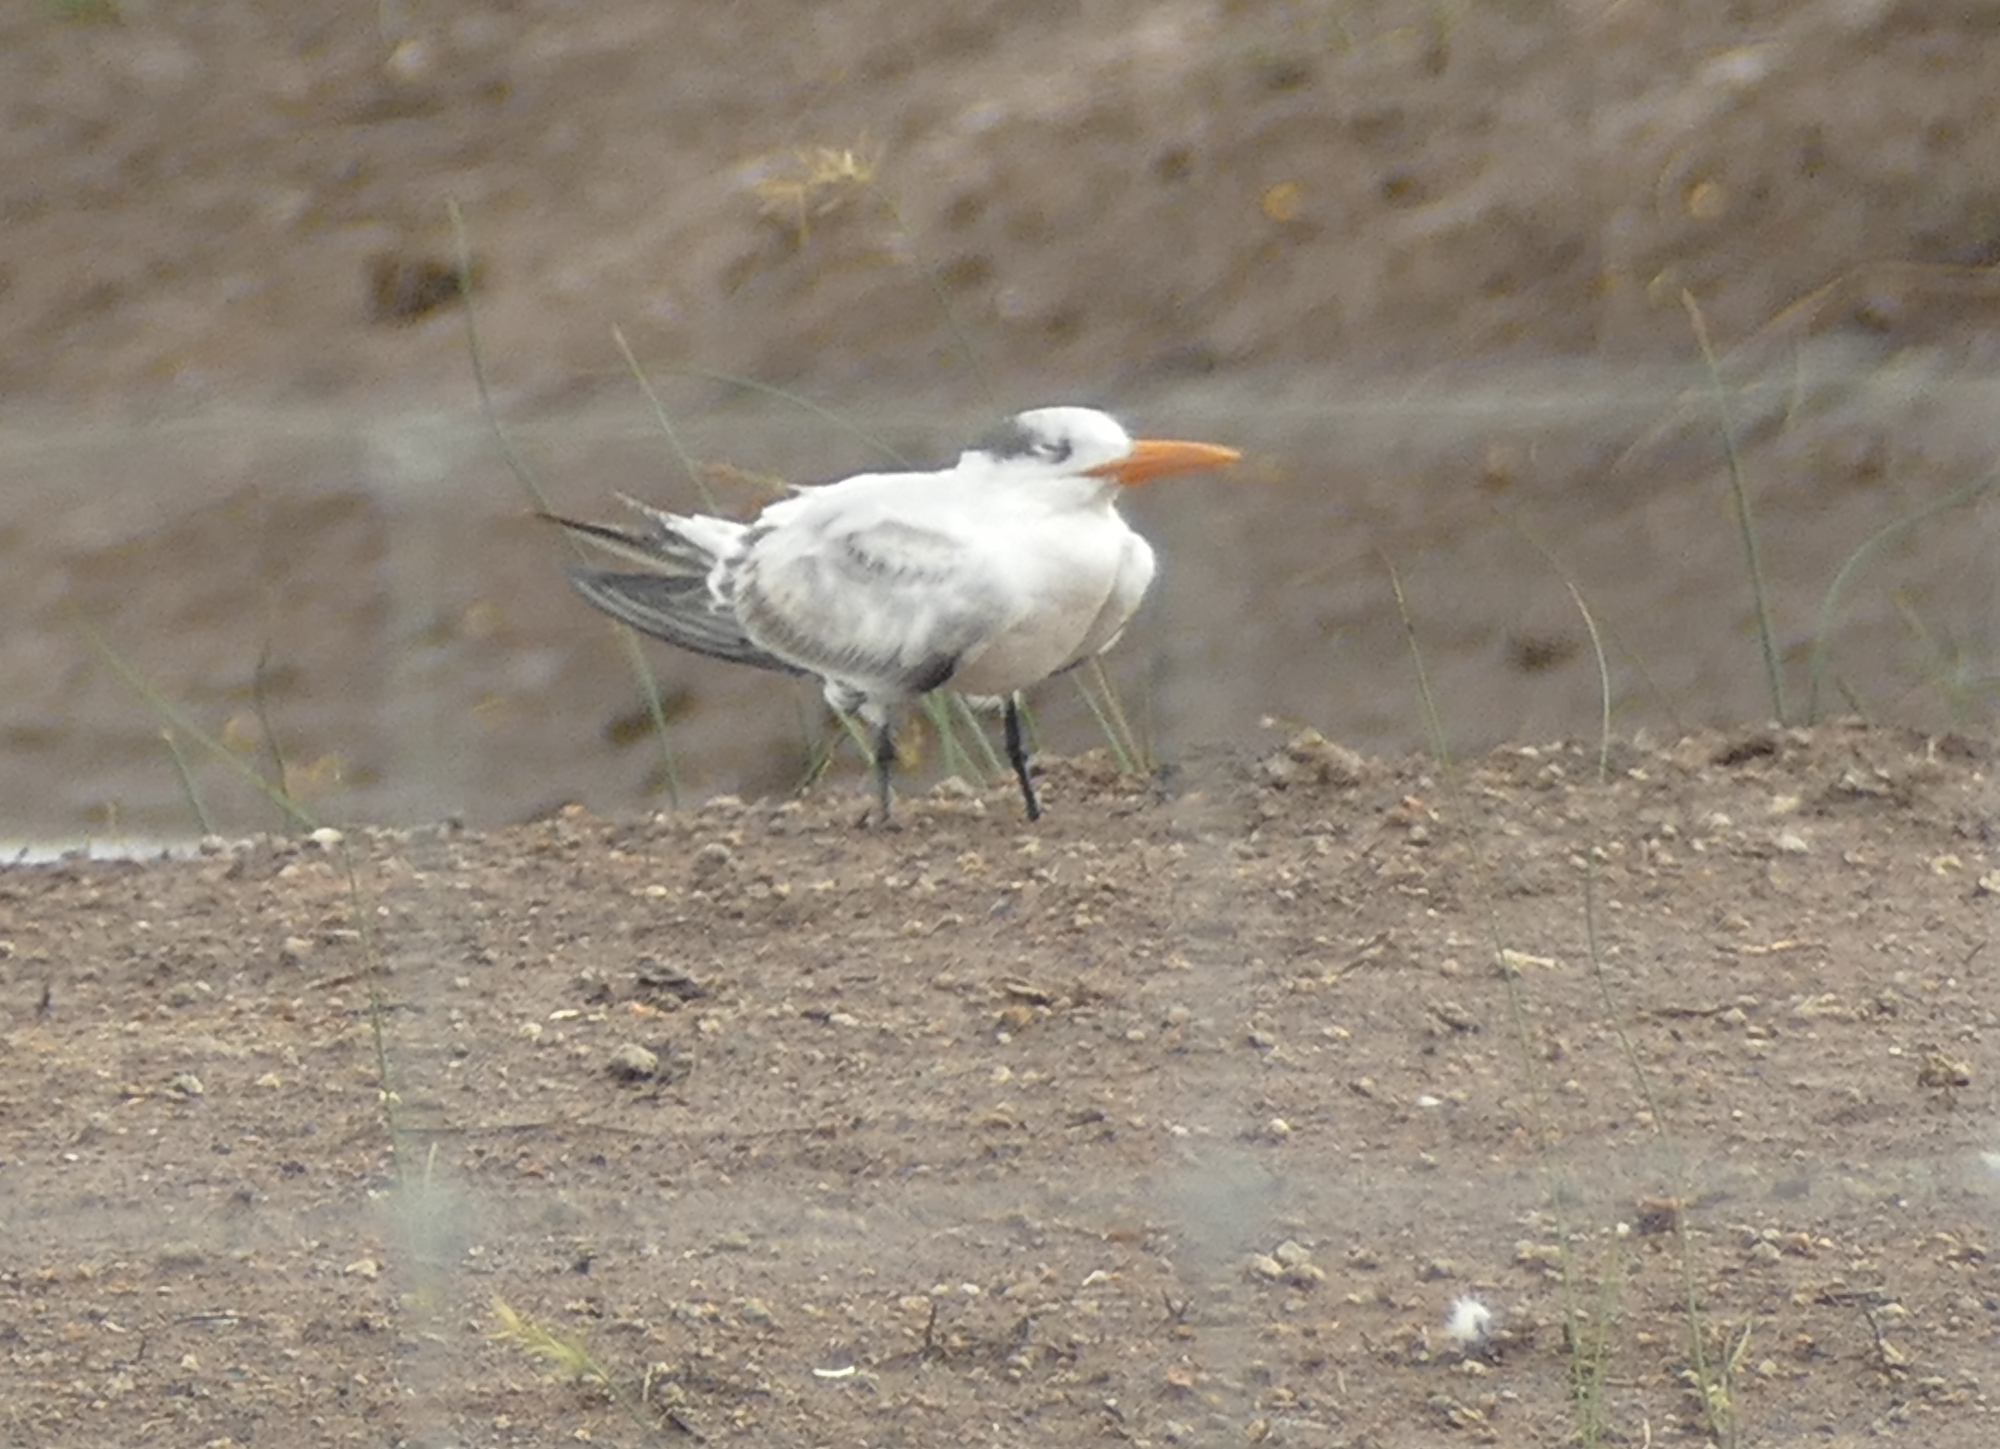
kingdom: Animalia
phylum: Chordata
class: Aves
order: Charadriiformes
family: Laridae
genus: Thalasseus
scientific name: Thalasseus maximus
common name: Royal tern
